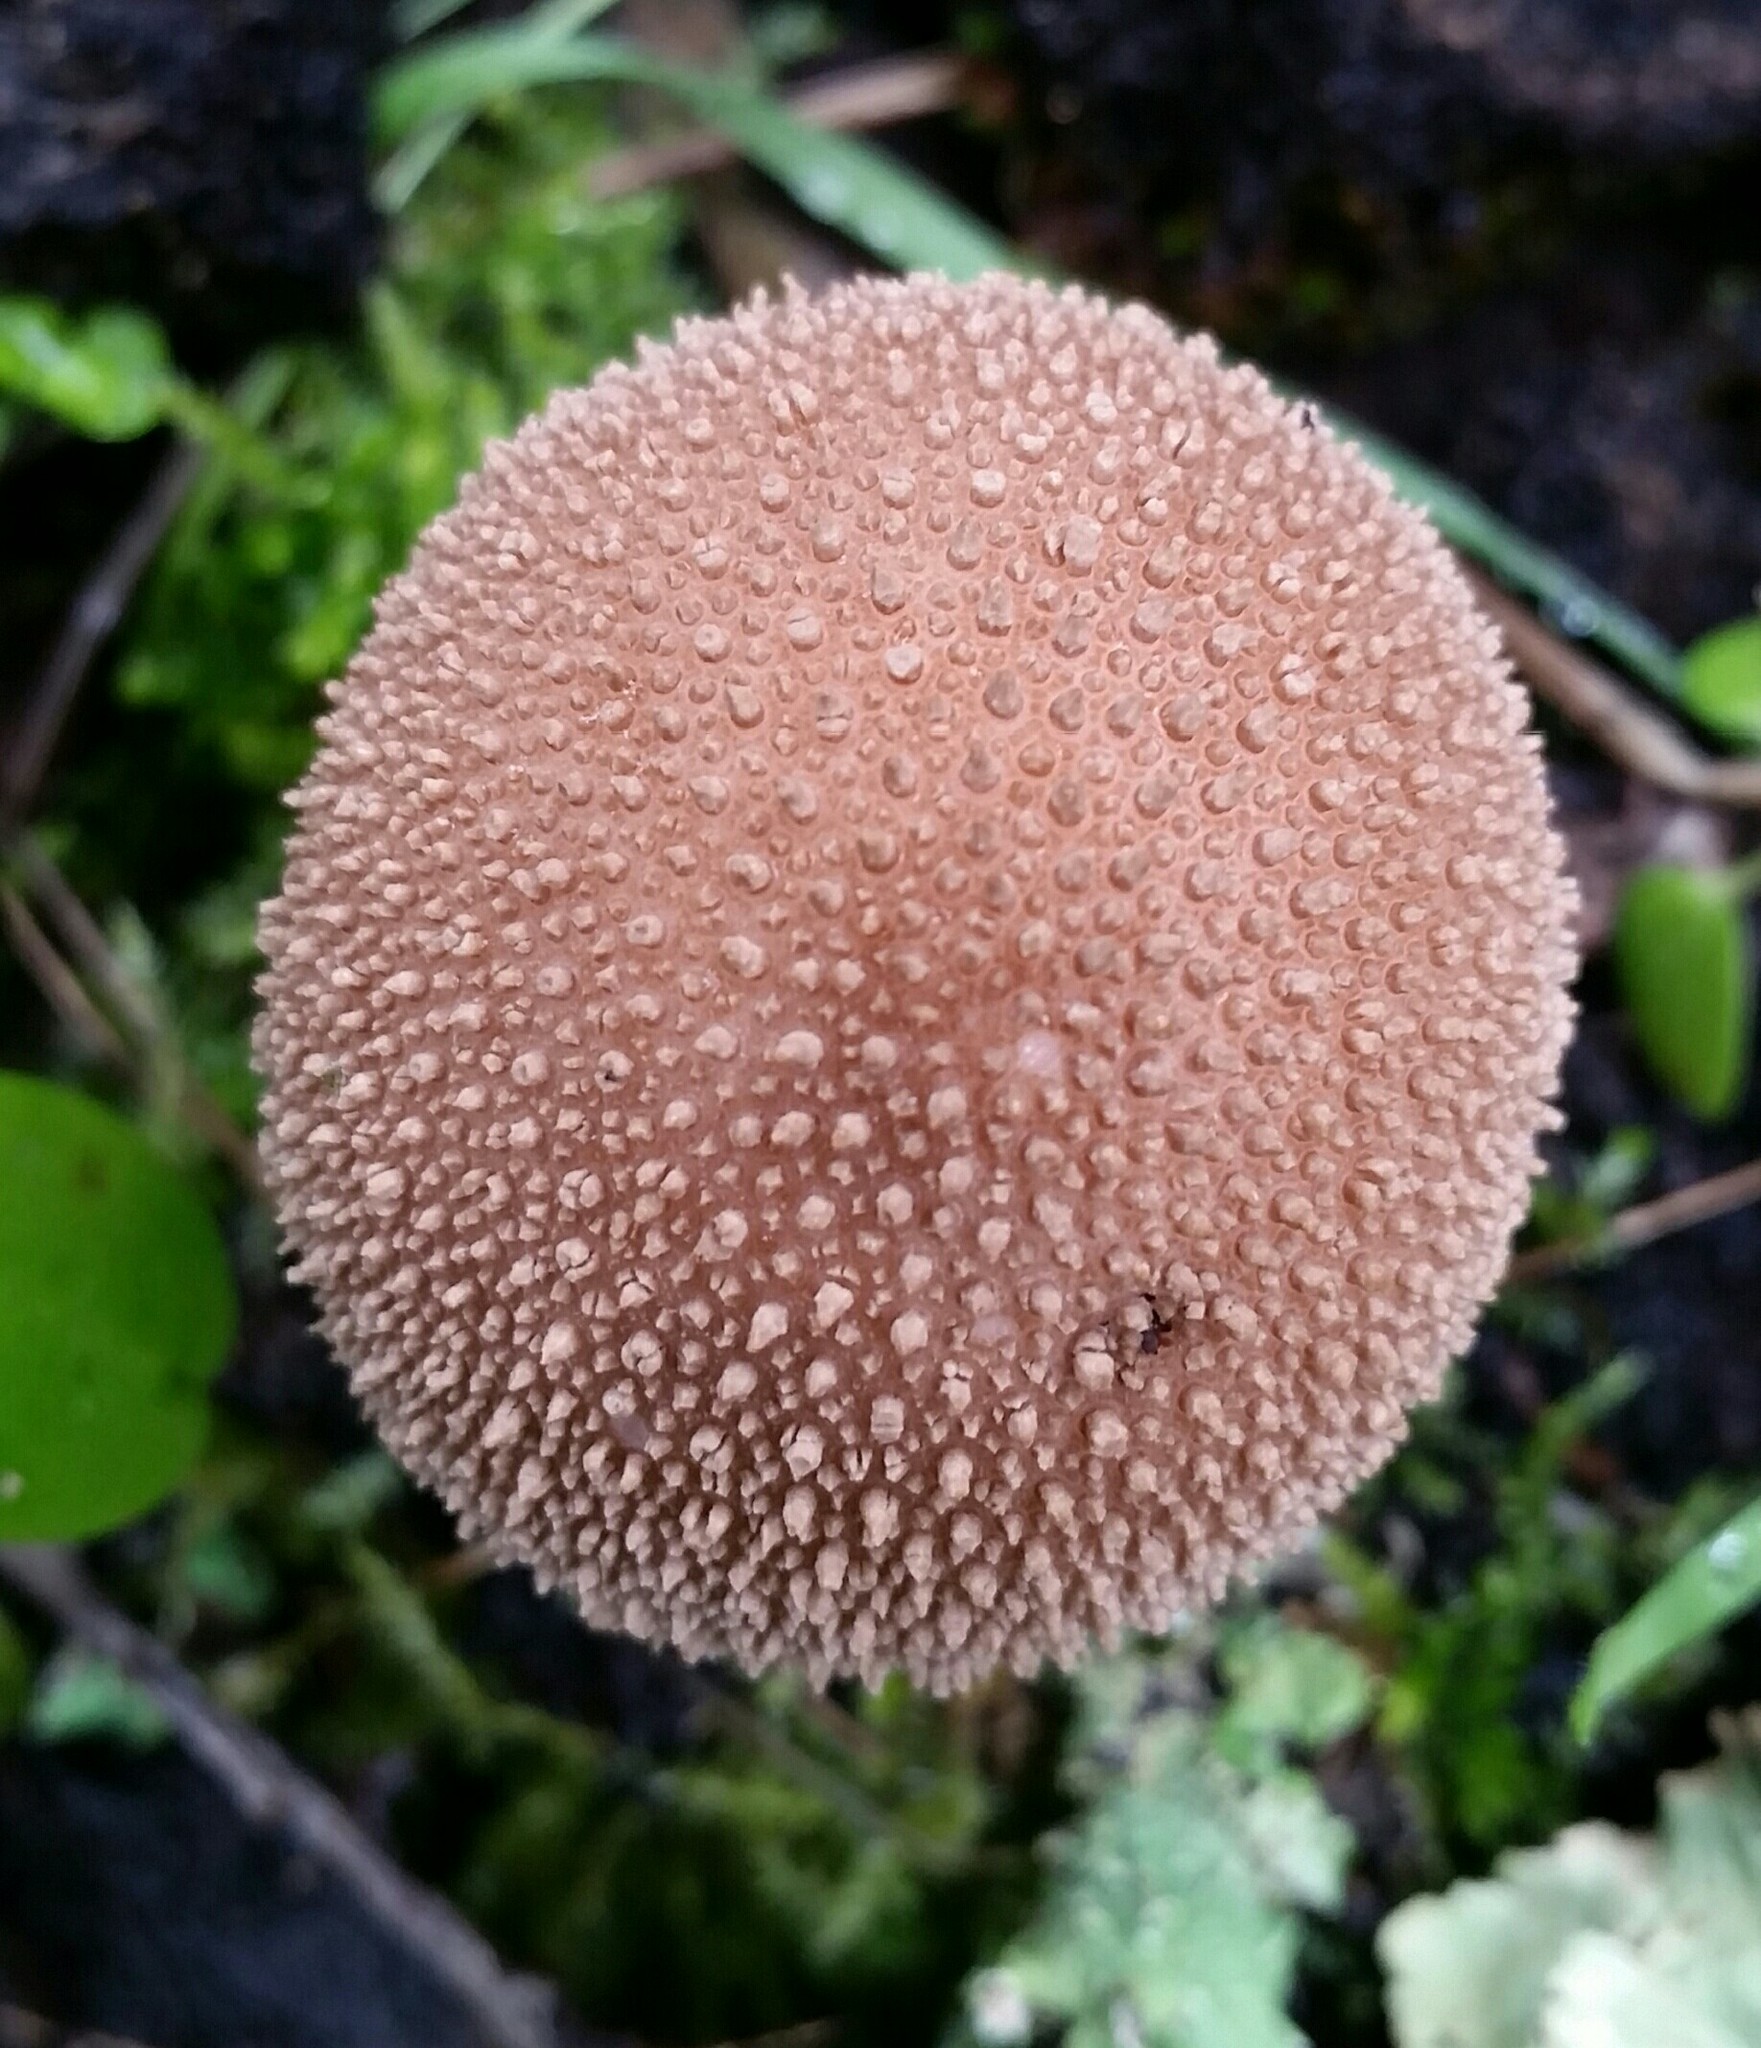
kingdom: Fungi
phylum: Basidiomycota
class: Agaricomycetes
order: Agaricales
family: Lycoperdaceae
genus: Lycoperdon
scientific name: Lycoperdon perlatum
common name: Common puffball
